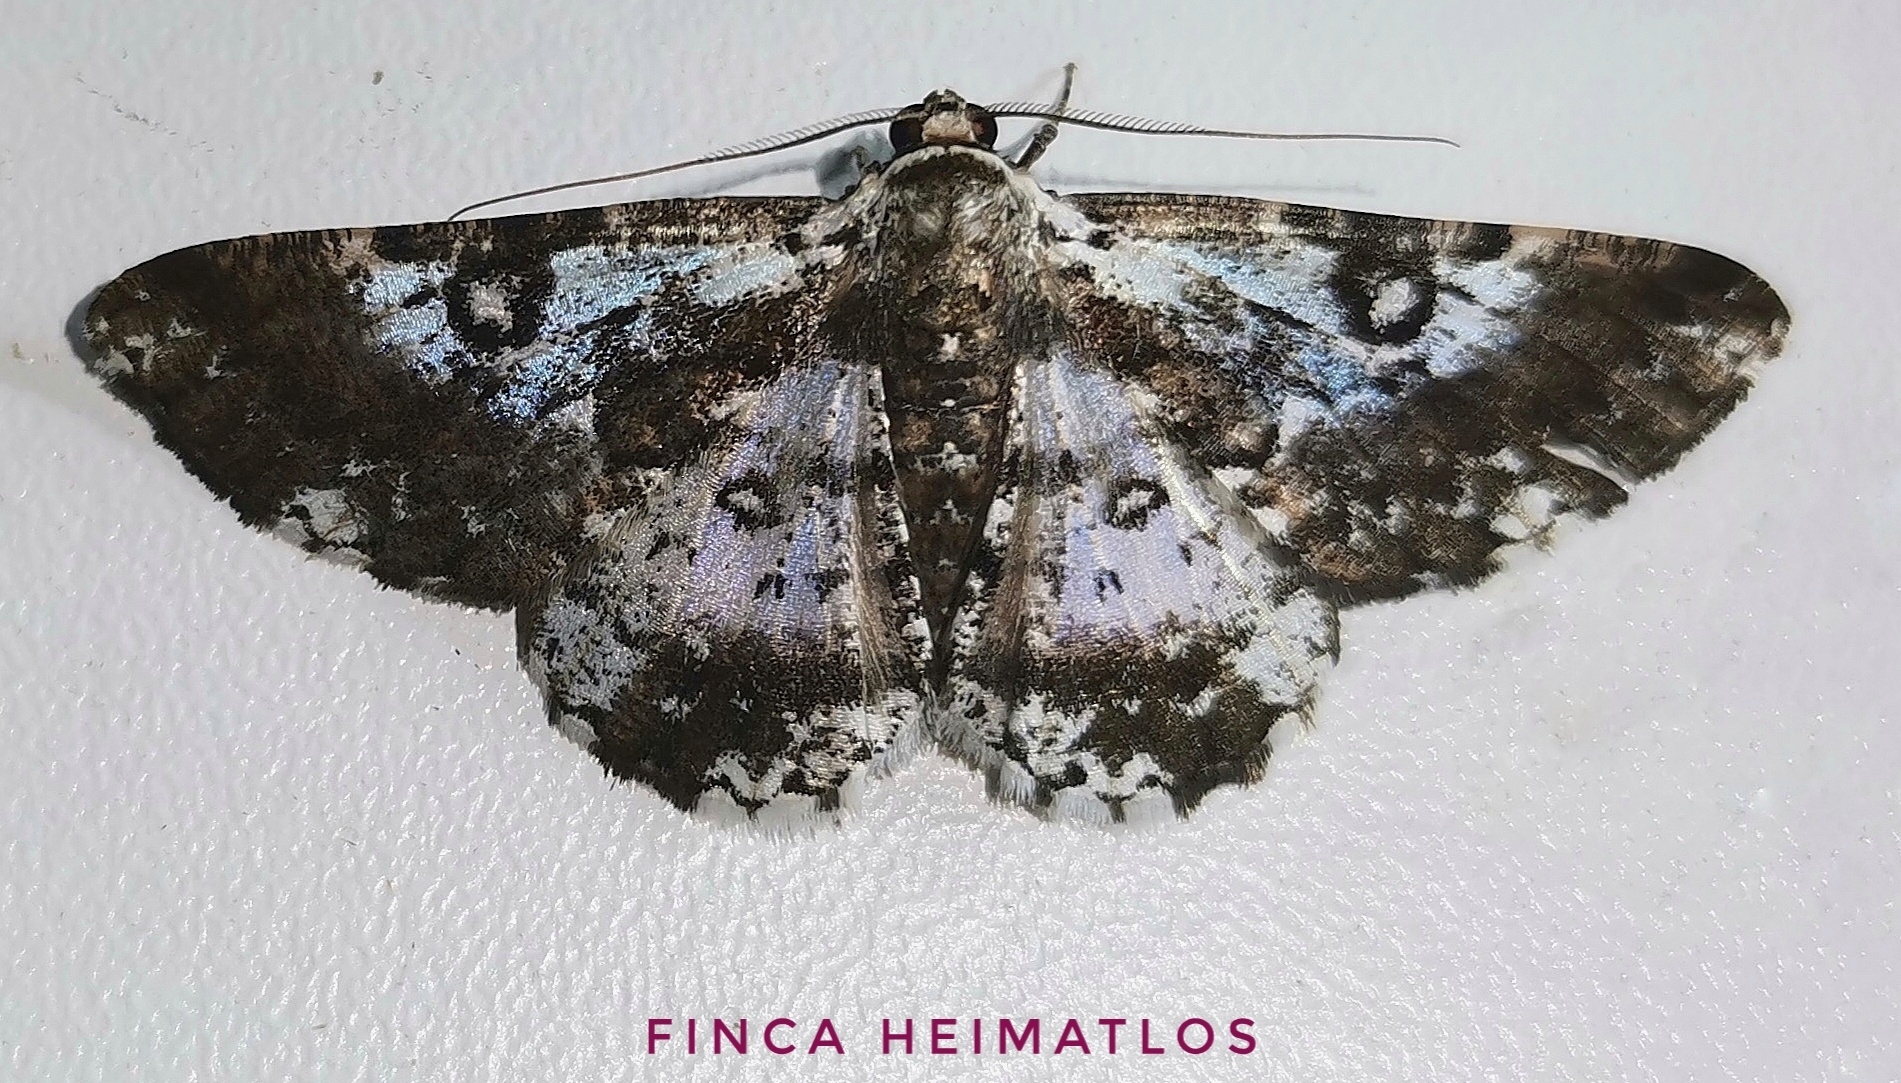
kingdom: Animalia
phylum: Arthropoda
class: Insecta
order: Lepidoptera
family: Geometridae
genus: Iridopsis
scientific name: Iridopsis validaria
